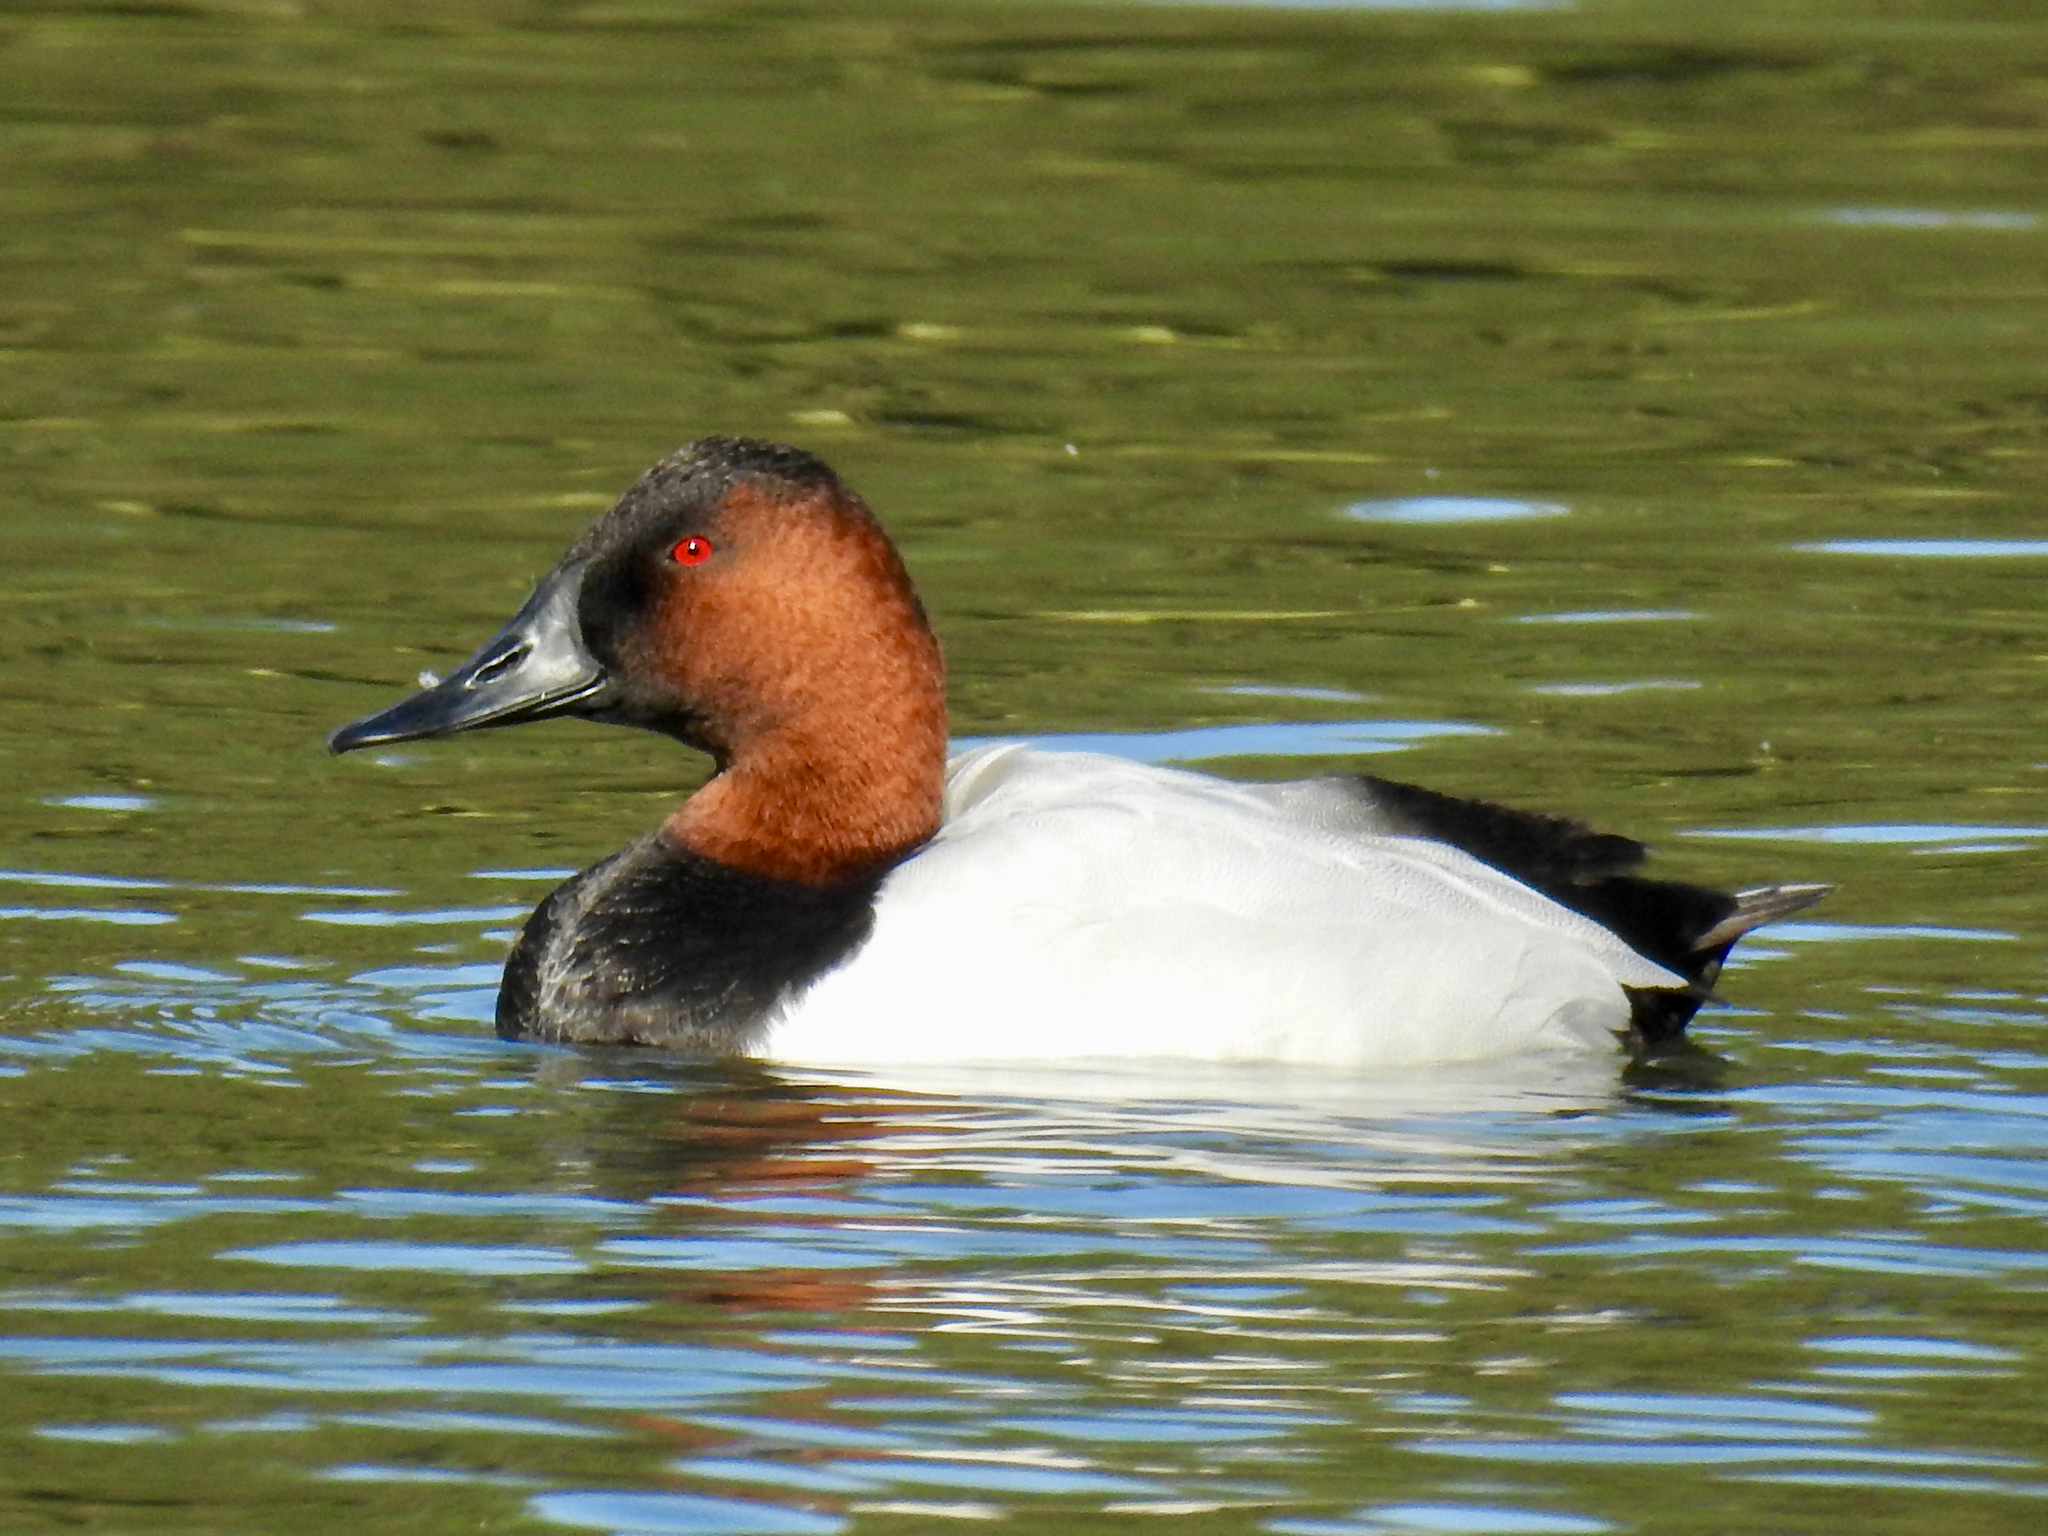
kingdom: Animalia
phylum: Chordata
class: Aves
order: Anseriformes
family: Anatidae
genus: Aythya
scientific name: Aythya valisineria
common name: Canvasback
